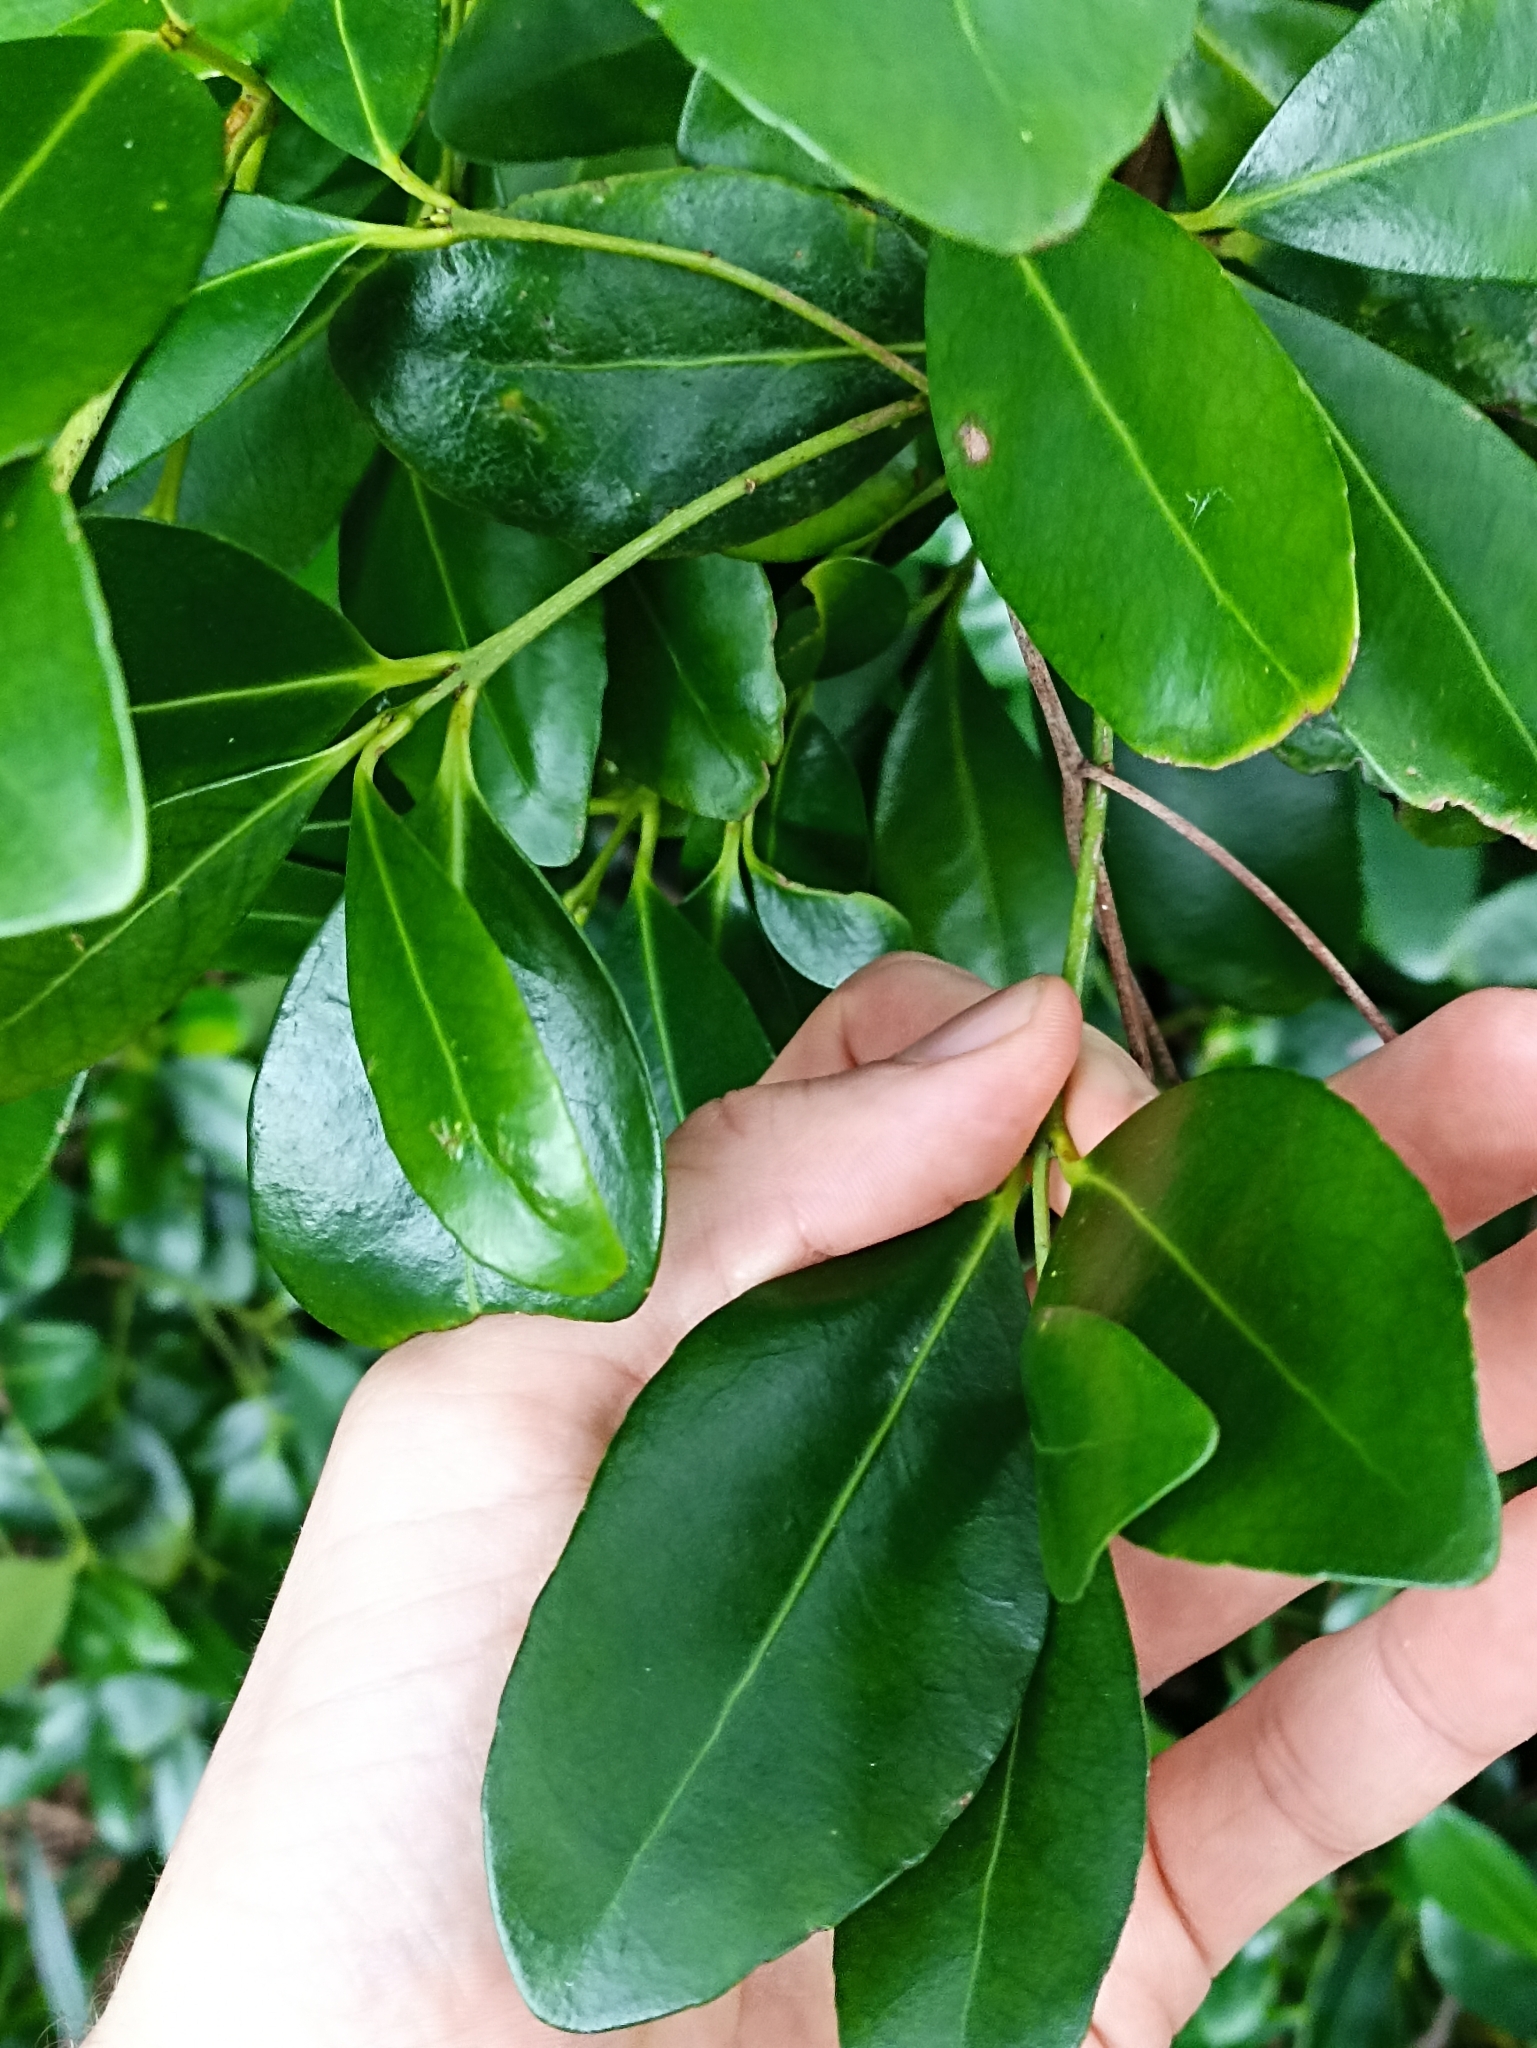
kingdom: Plantae
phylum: Tracheophyta
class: Magnoliopsida
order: Celastrales
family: Celastraceae
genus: Elaeodendron
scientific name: Elaeodendron australe
